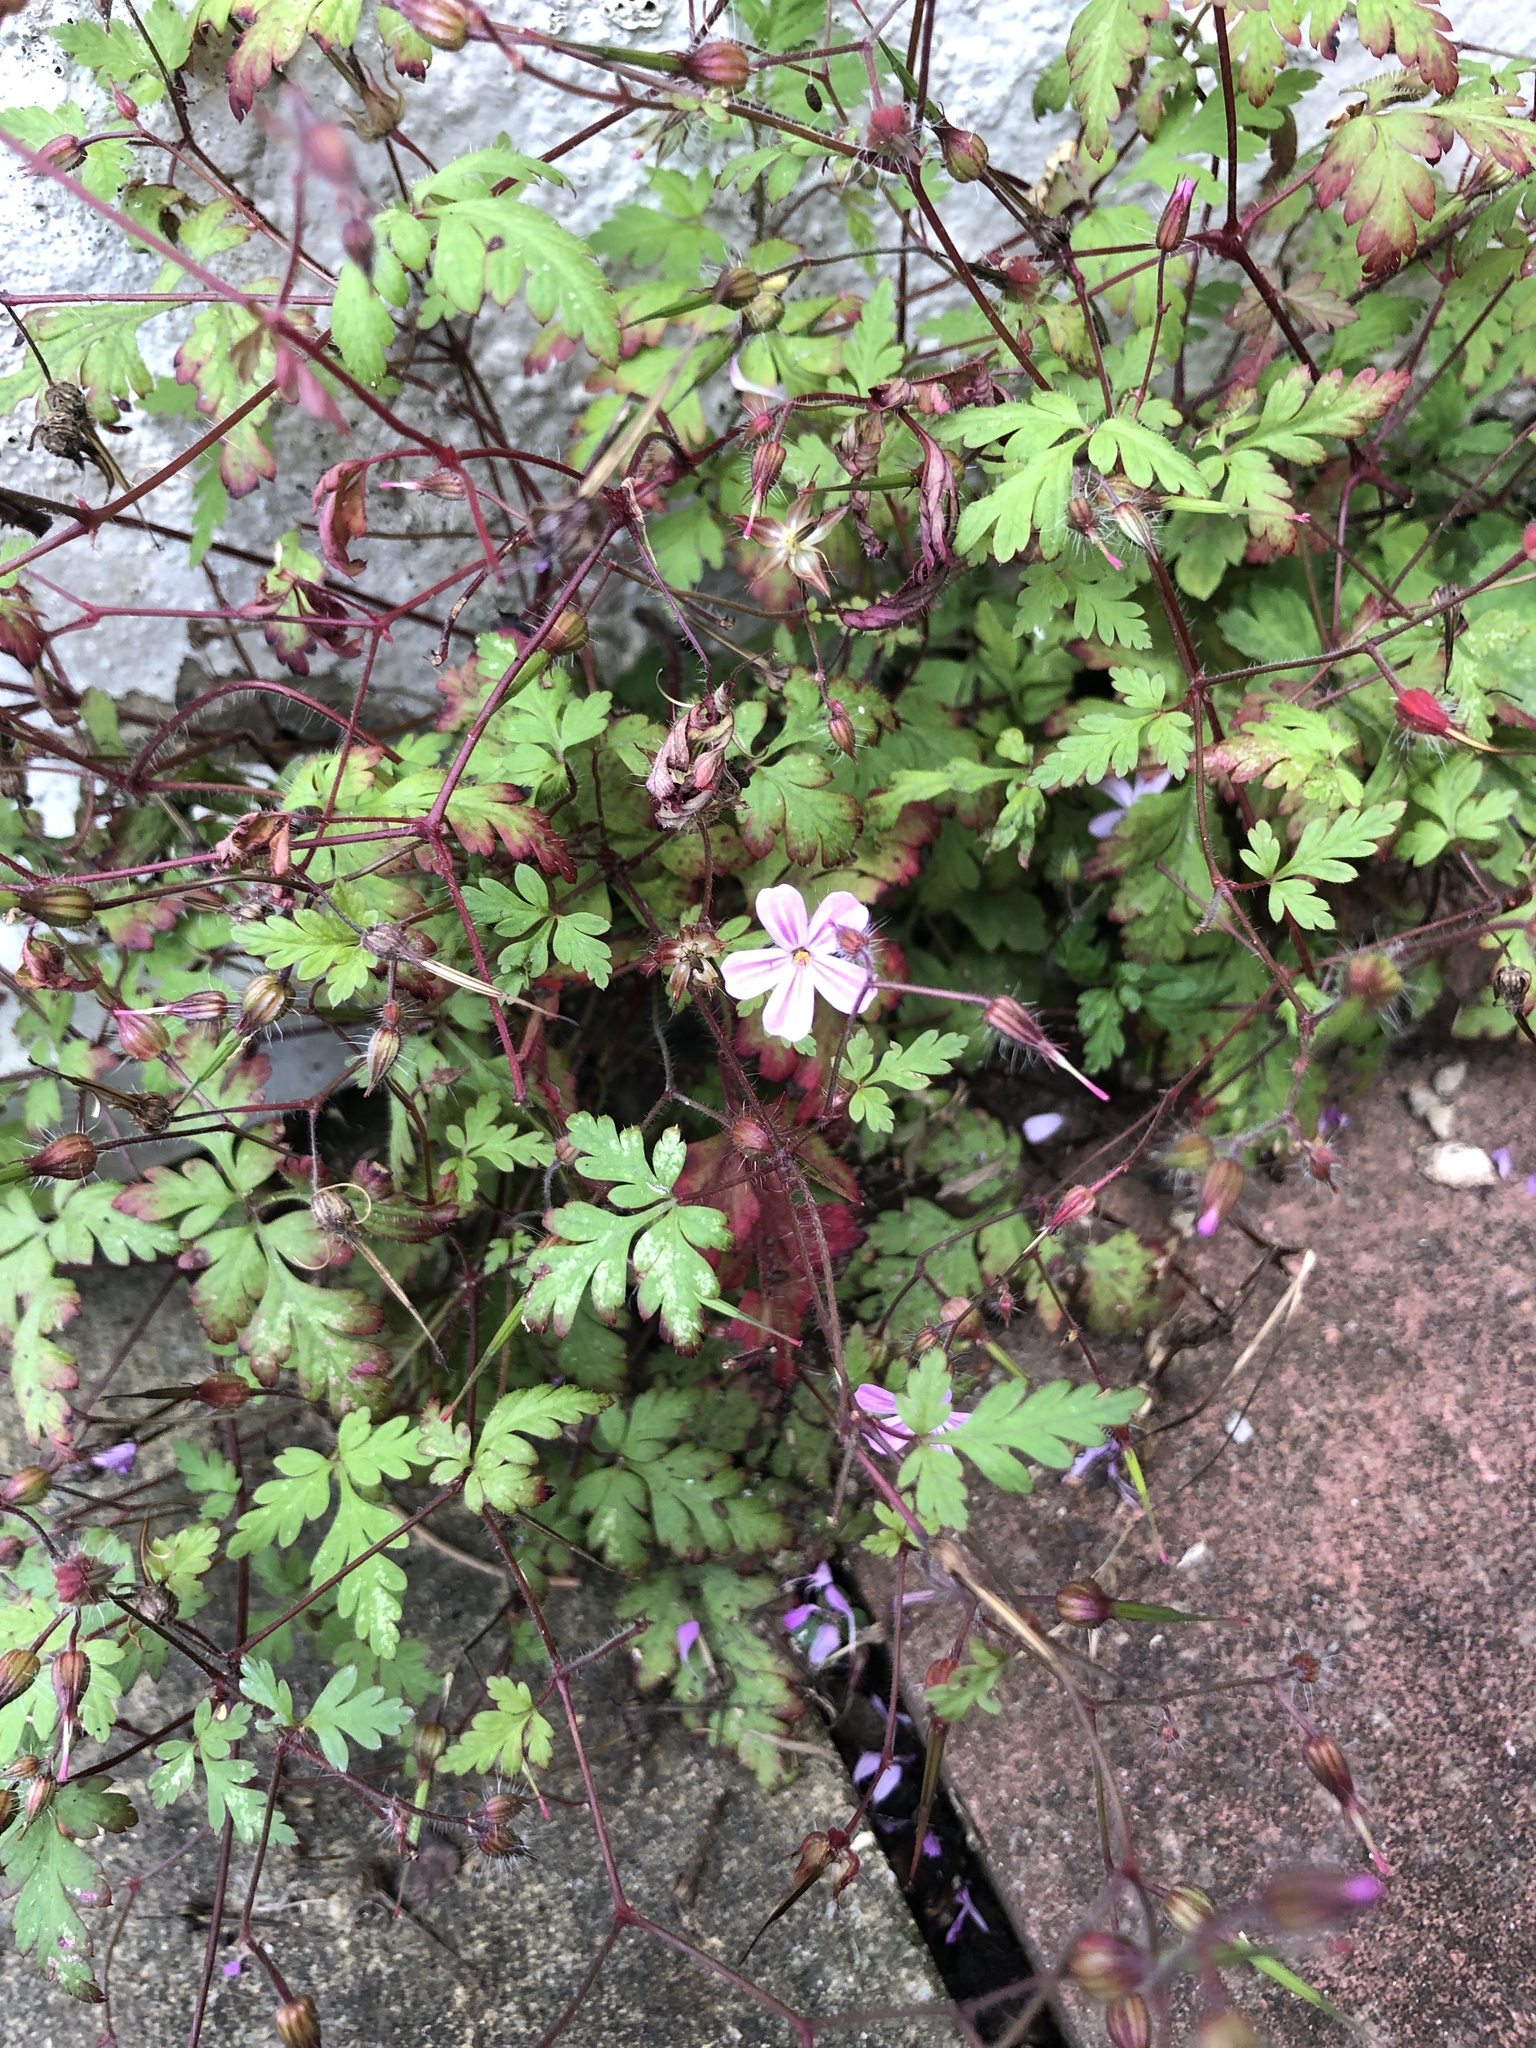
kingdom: Plantae
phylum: Tracheophyta
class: Magnoliopsida
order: Geraniales
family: Geraniaceae
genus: Geranium
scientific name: Geranium robertianum
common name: Herb-robert
